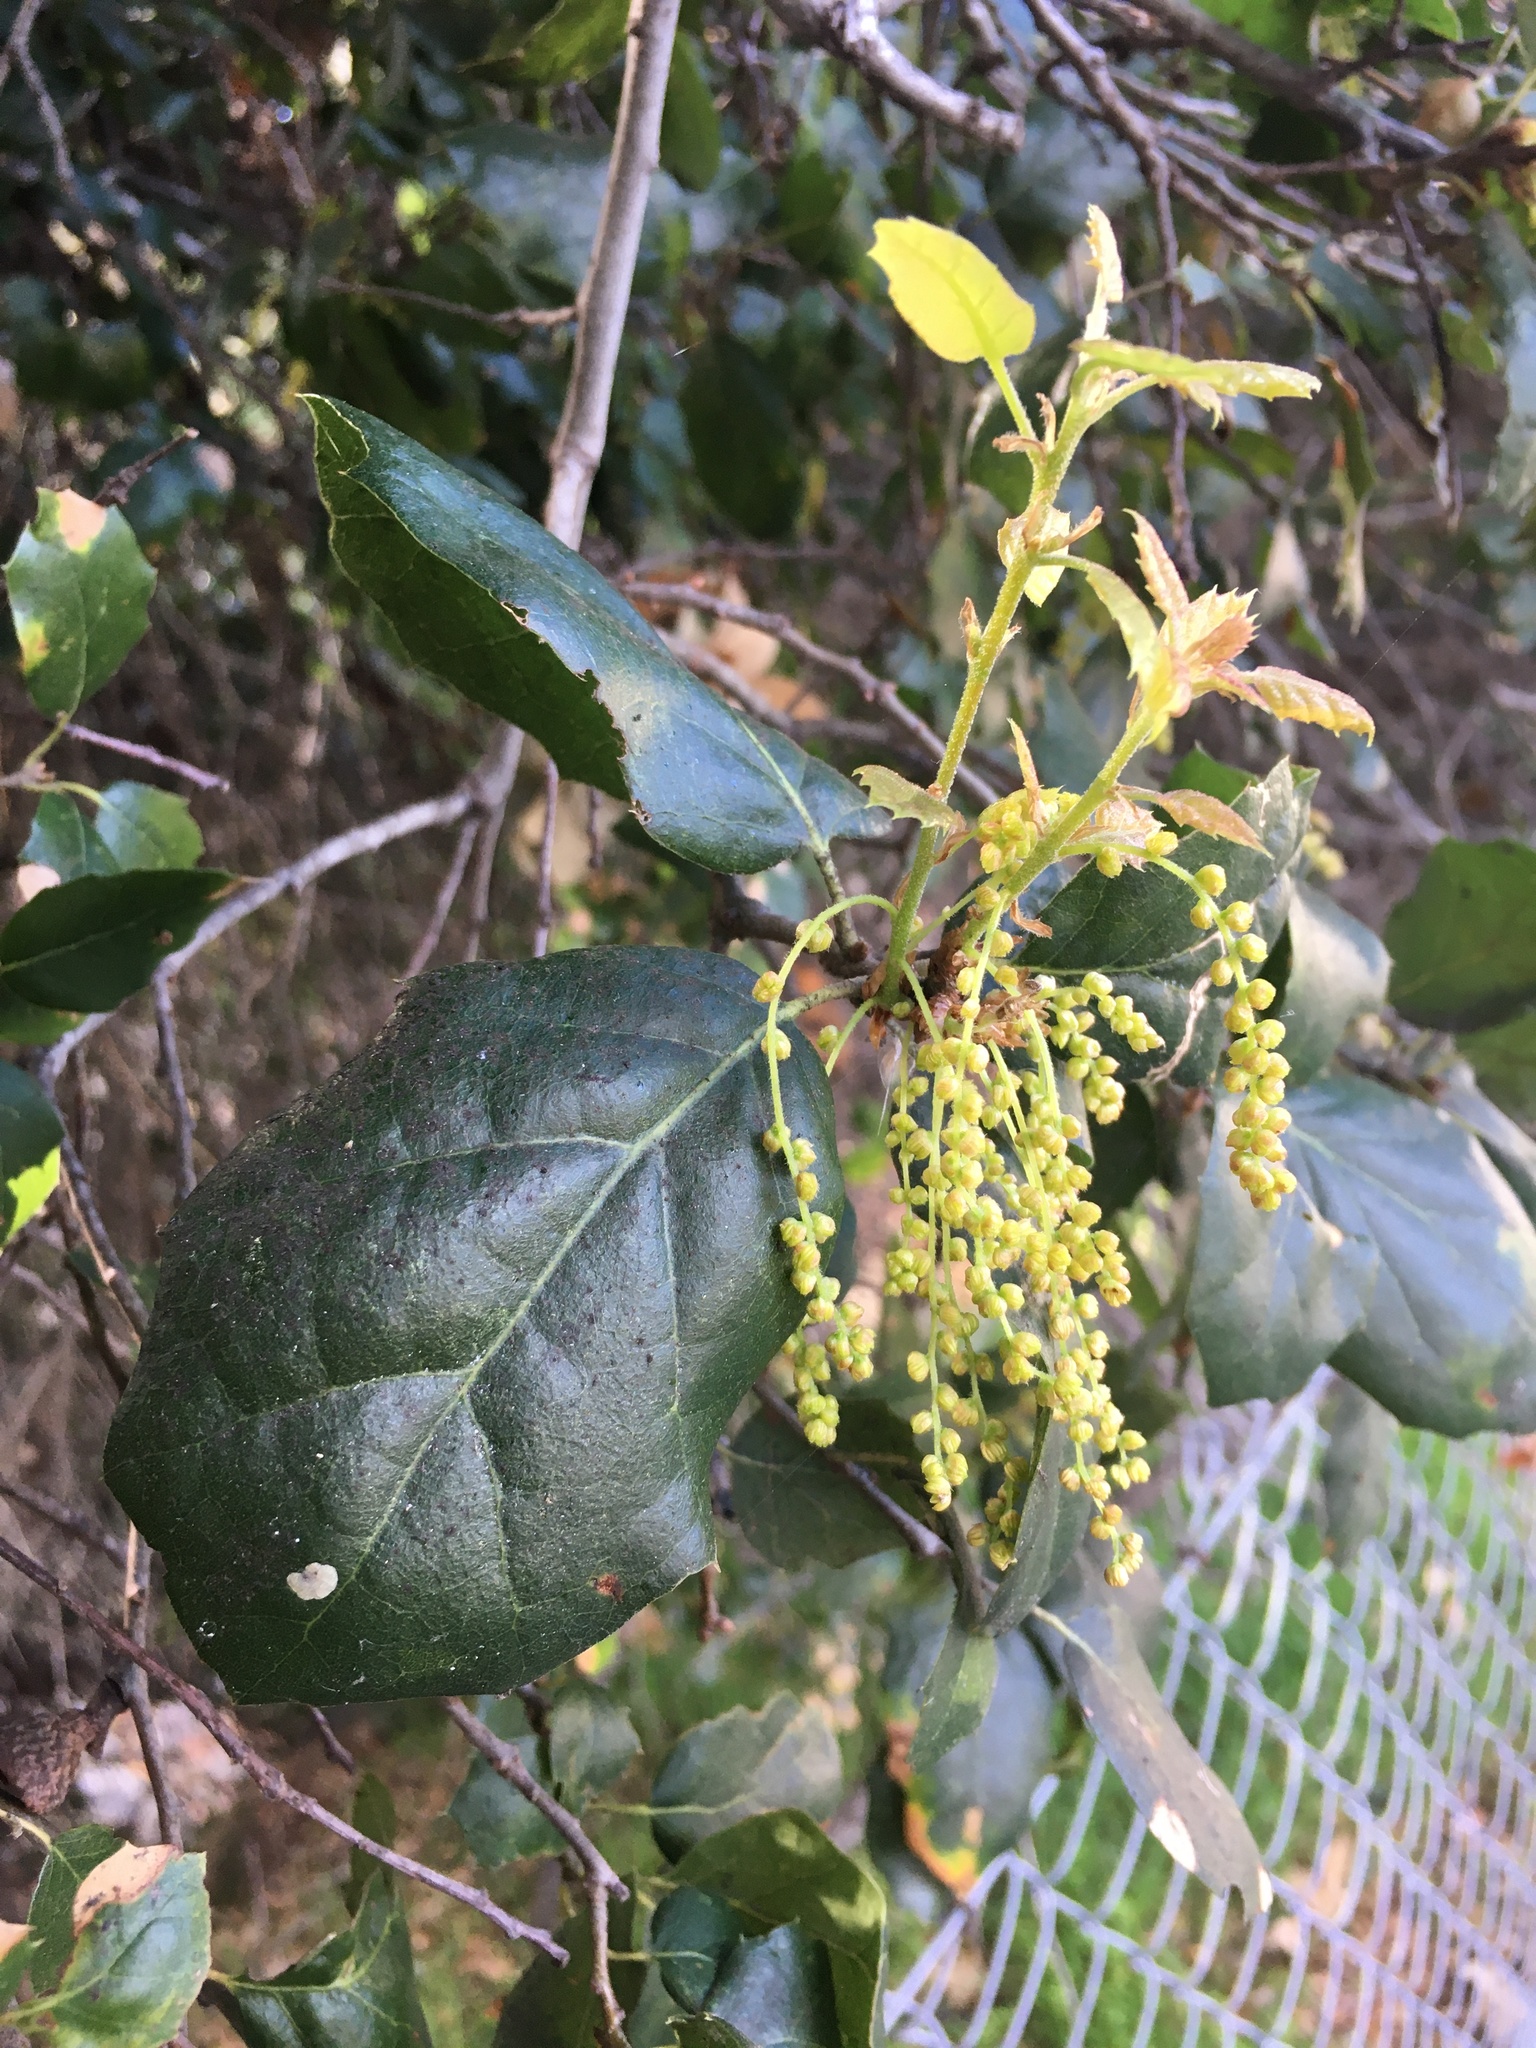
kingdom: Plantae
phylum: Tracheophyta
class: Magnoliopsida
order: Fagales
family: Fagaceae
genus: Quercus
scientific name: Quercus agrifolia
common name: California live oak
